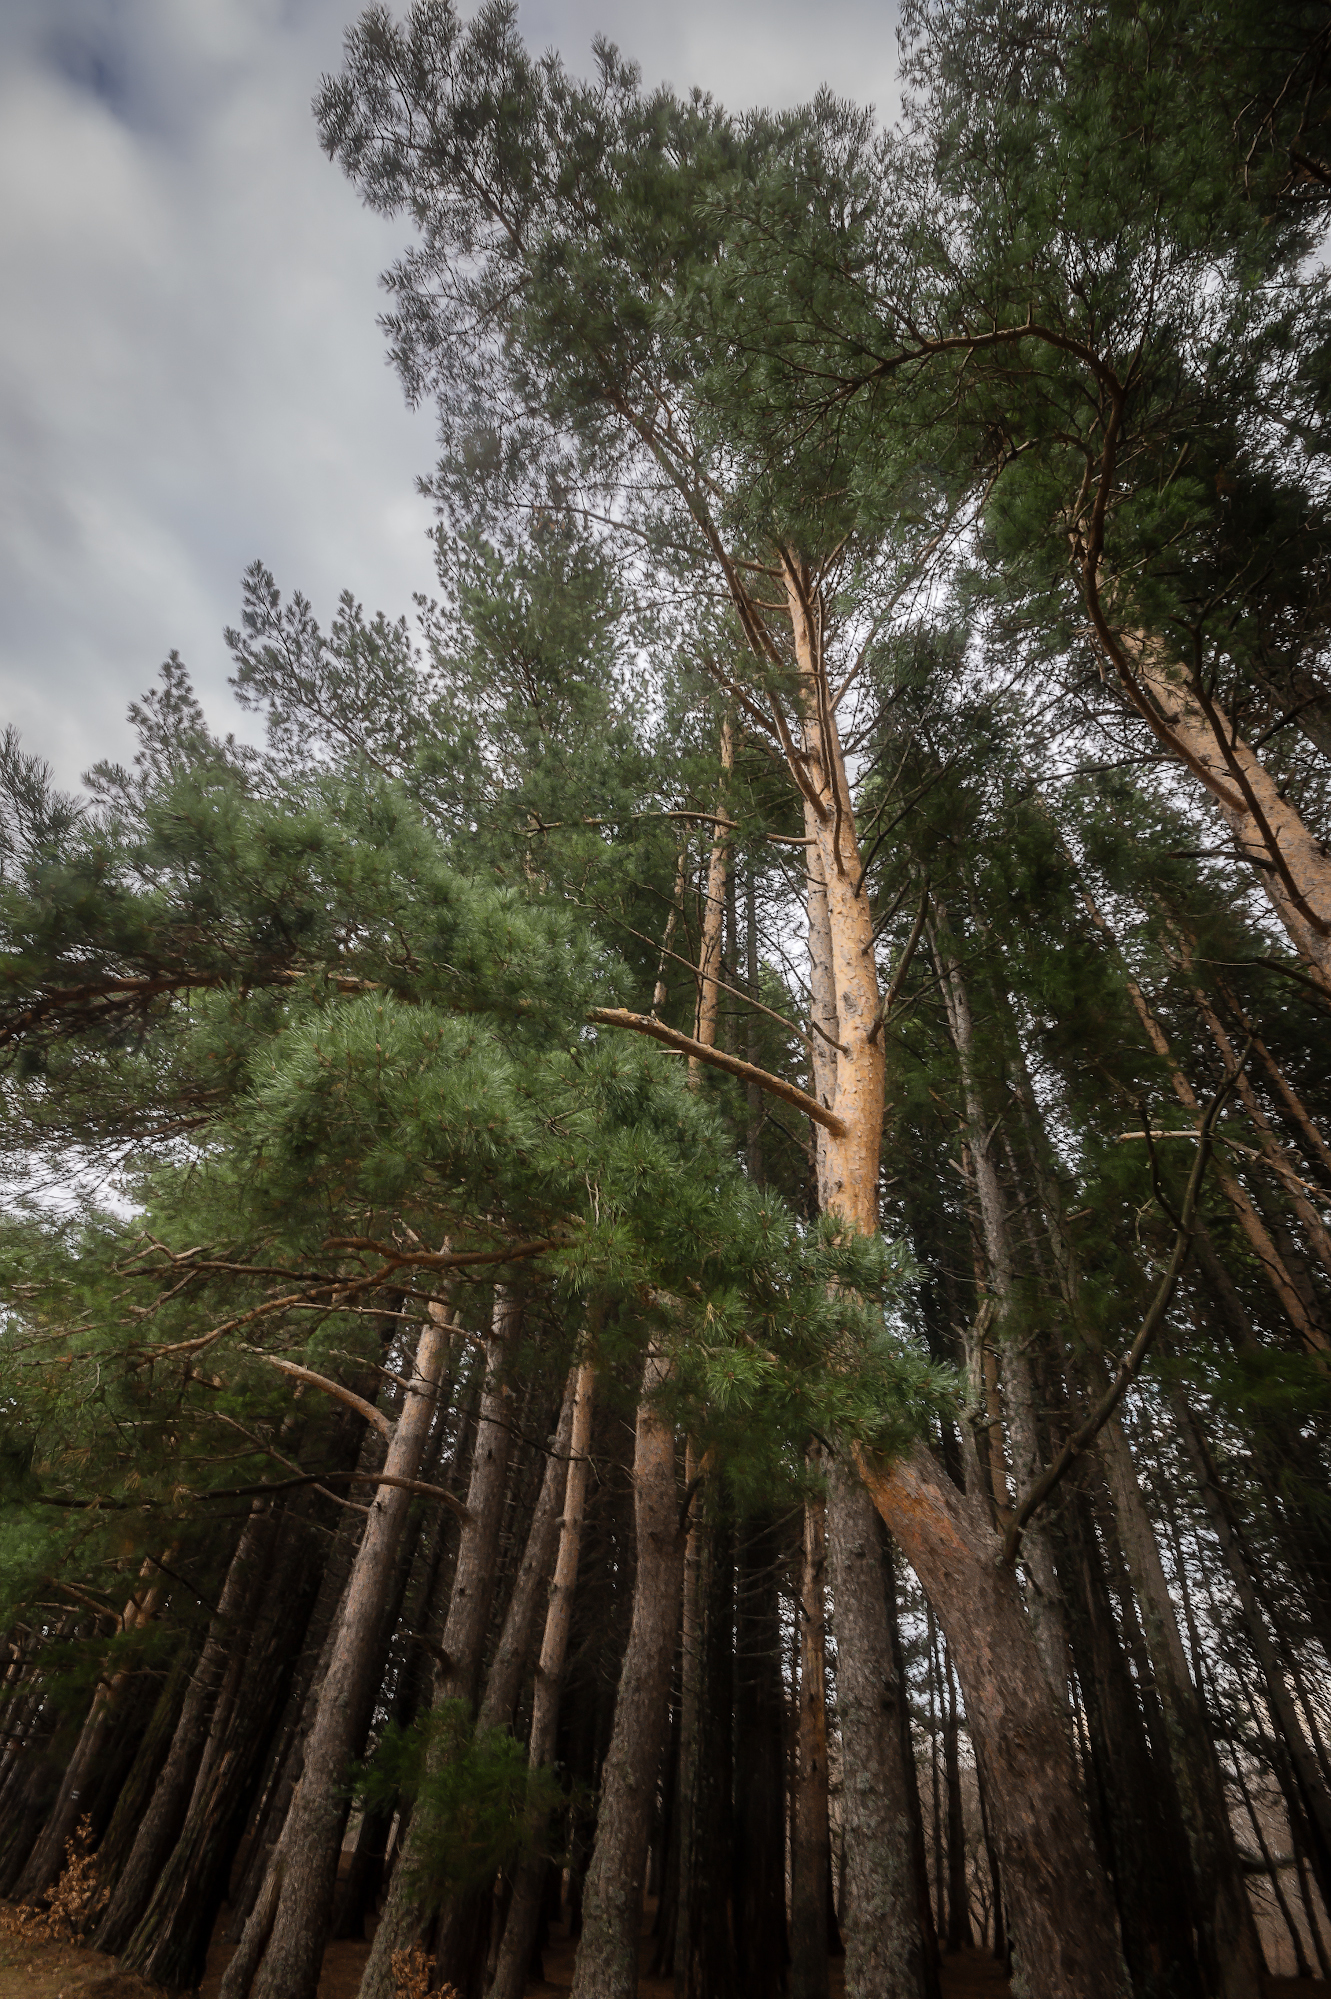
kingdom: Plantae
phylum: Tracheophyta
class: Pinopsida
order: Pinales
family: Pinaceae
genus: Pinus
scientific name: Pinus sylvestris
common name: Scots pine
